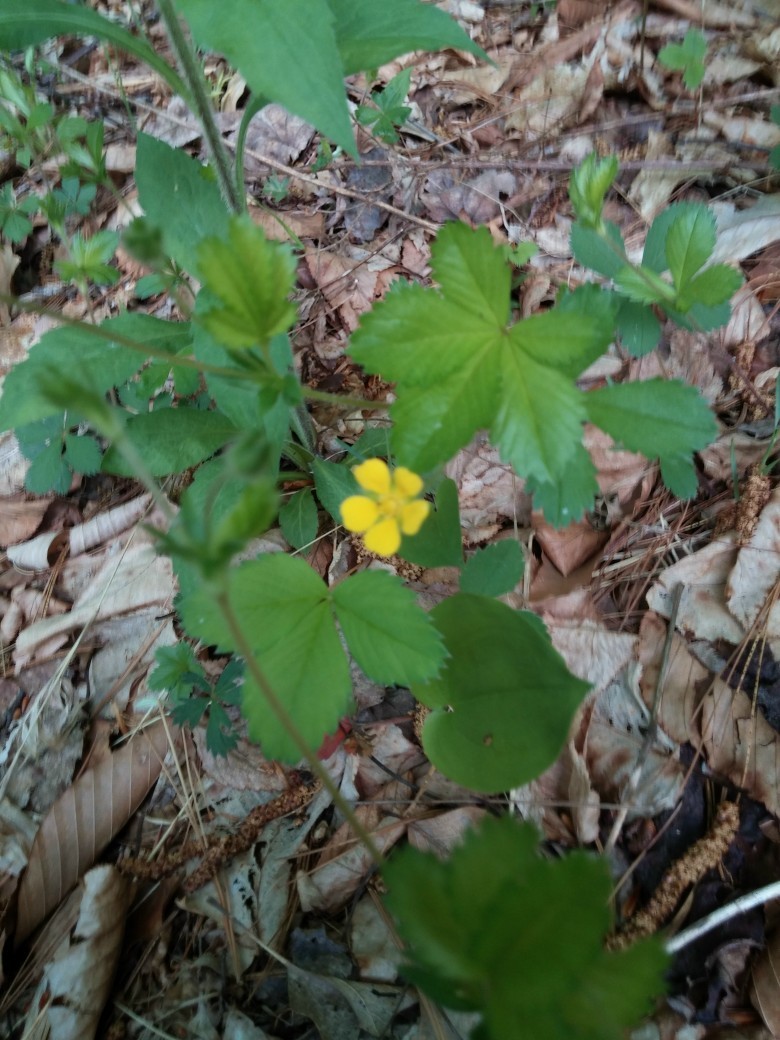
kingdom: Plantae
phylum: Tracheophyta
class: Magnoliopsida
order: Rosales
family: Rosaceae
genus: Potentilla
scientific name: Potentilla simplex
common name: Old field cinquefoil
